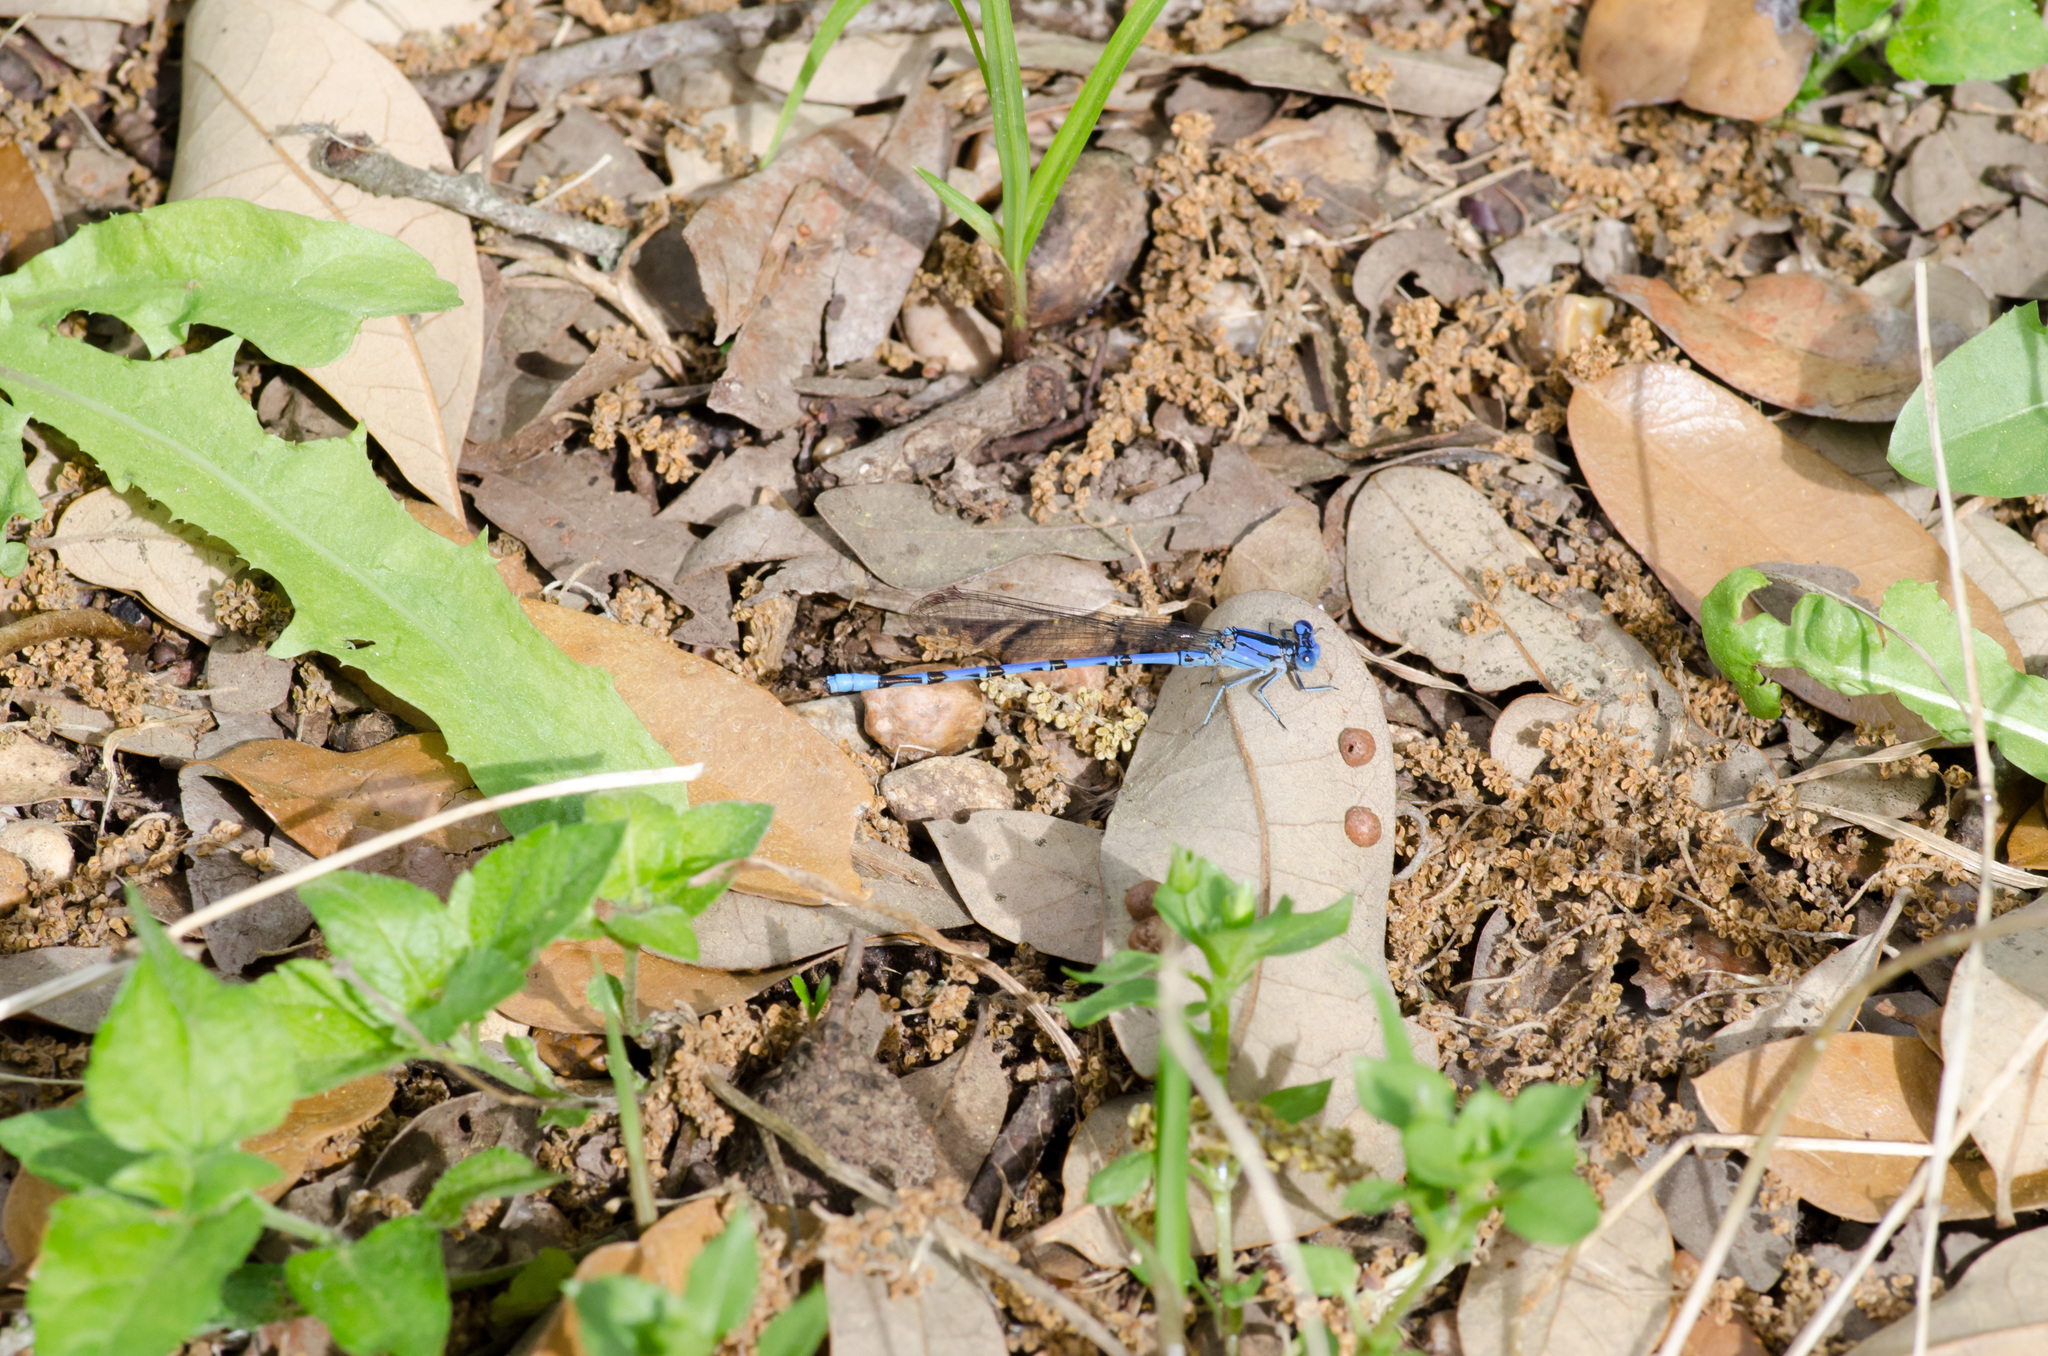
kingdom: Animalia
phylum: Arthropoda
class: Insecta
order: Odonata
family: Coenagrionidae
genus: Argia
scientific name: Argia funebris
